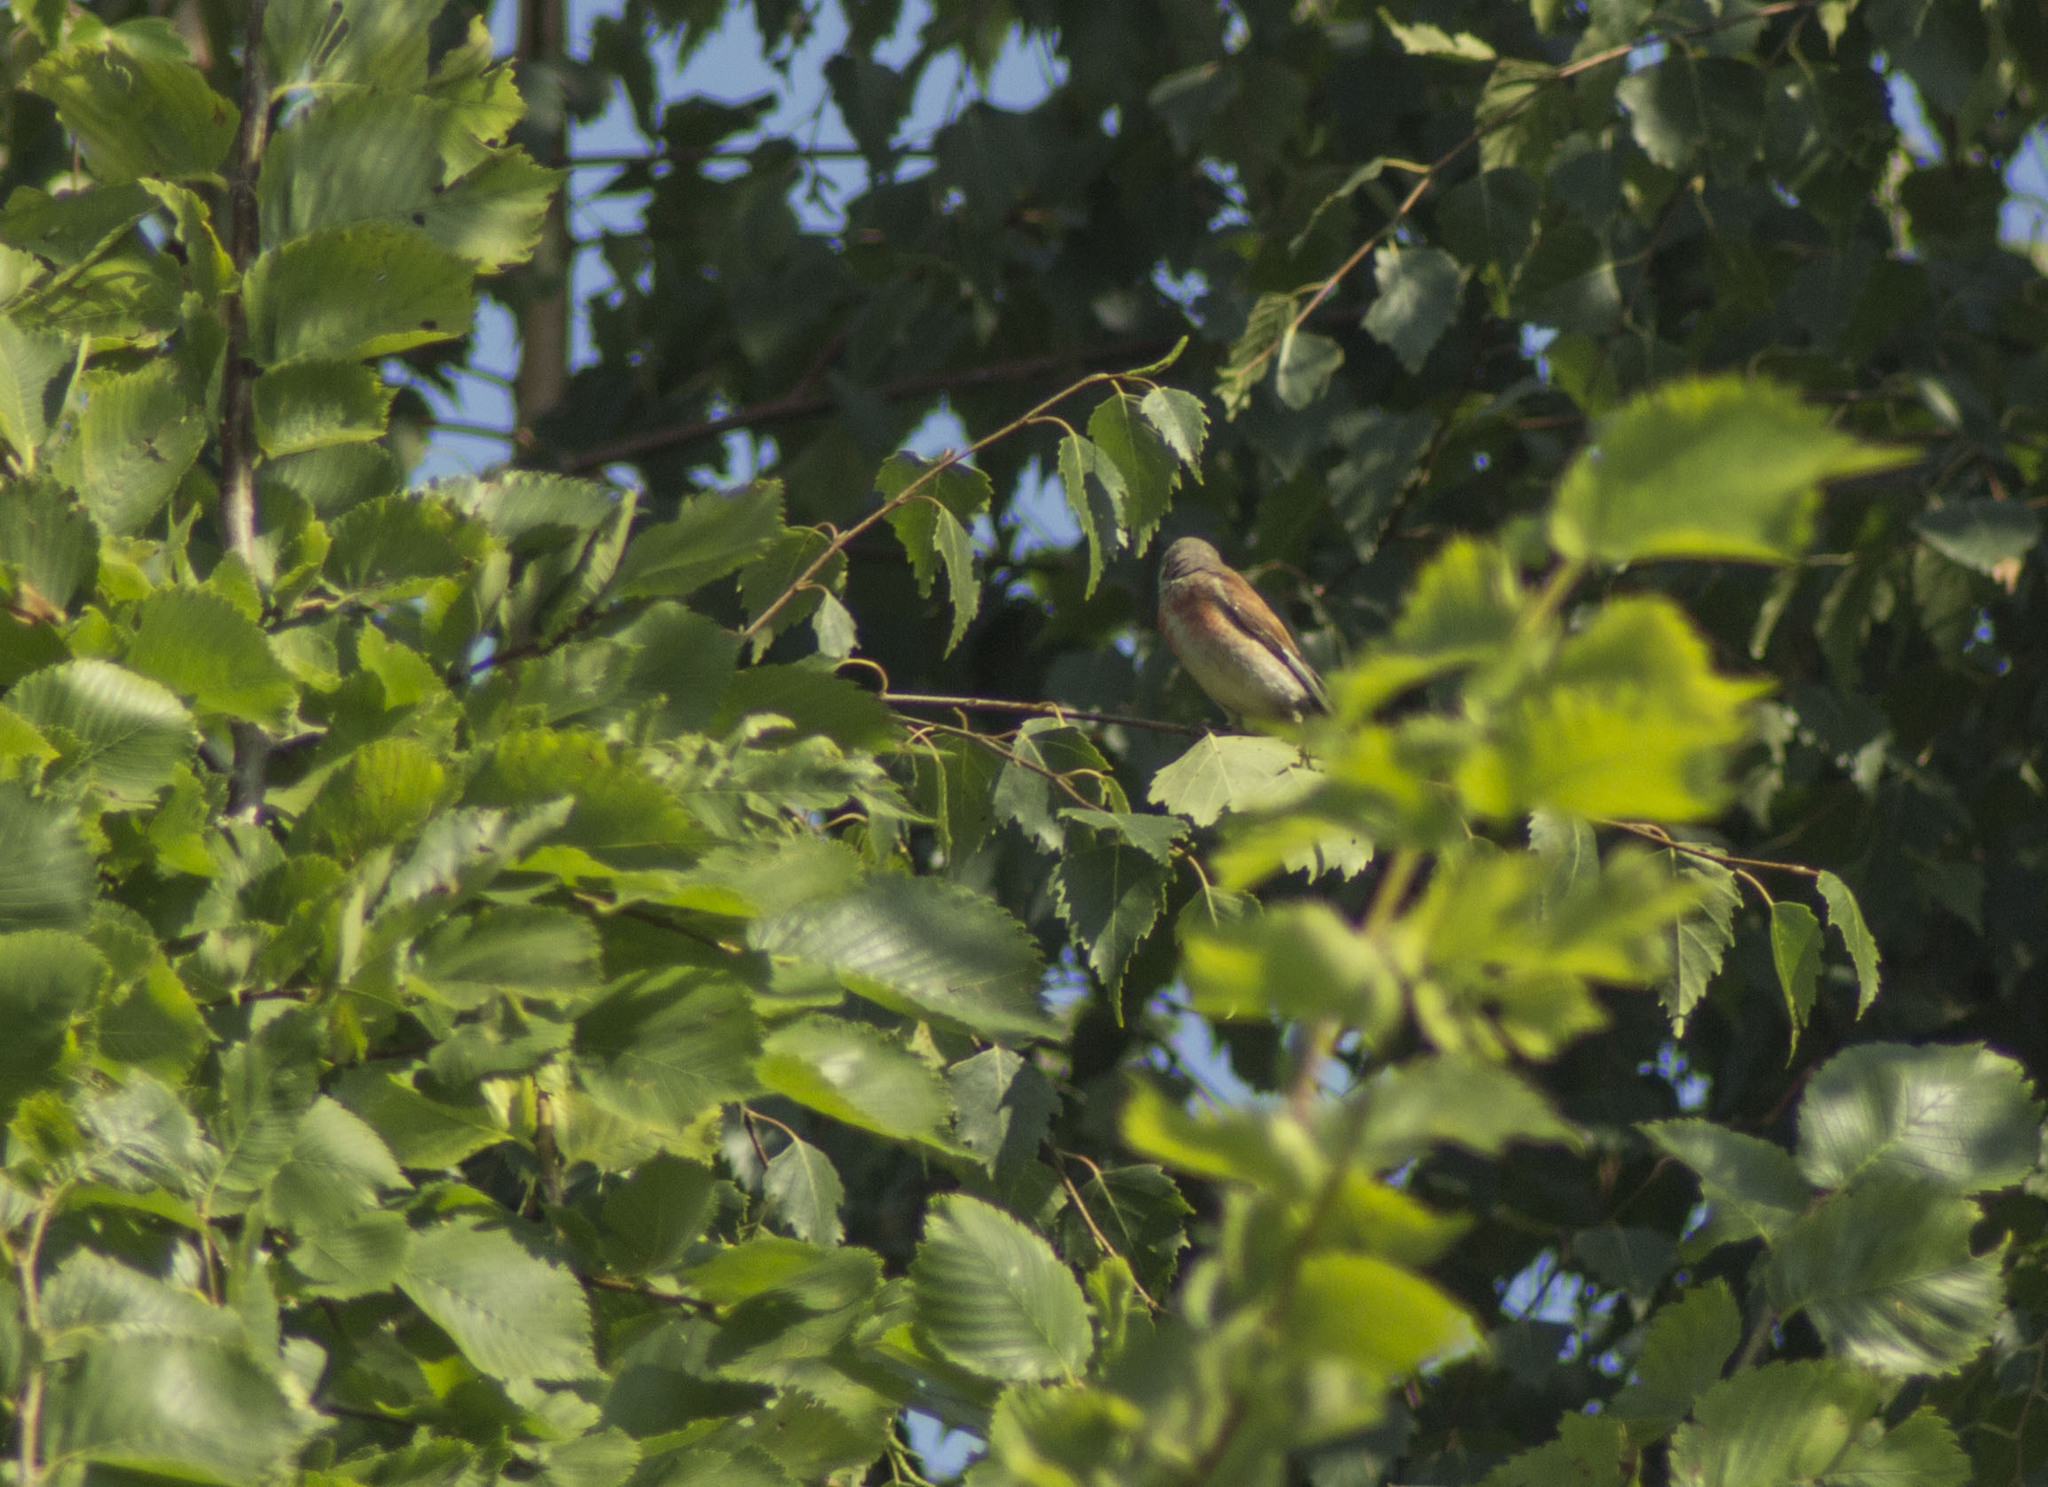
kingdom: Animalia
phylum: Chordata
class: Aves
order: Passeriformes
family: Fringillidae
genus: Linaria
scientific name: Linaria cannabina
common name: Common linnet
